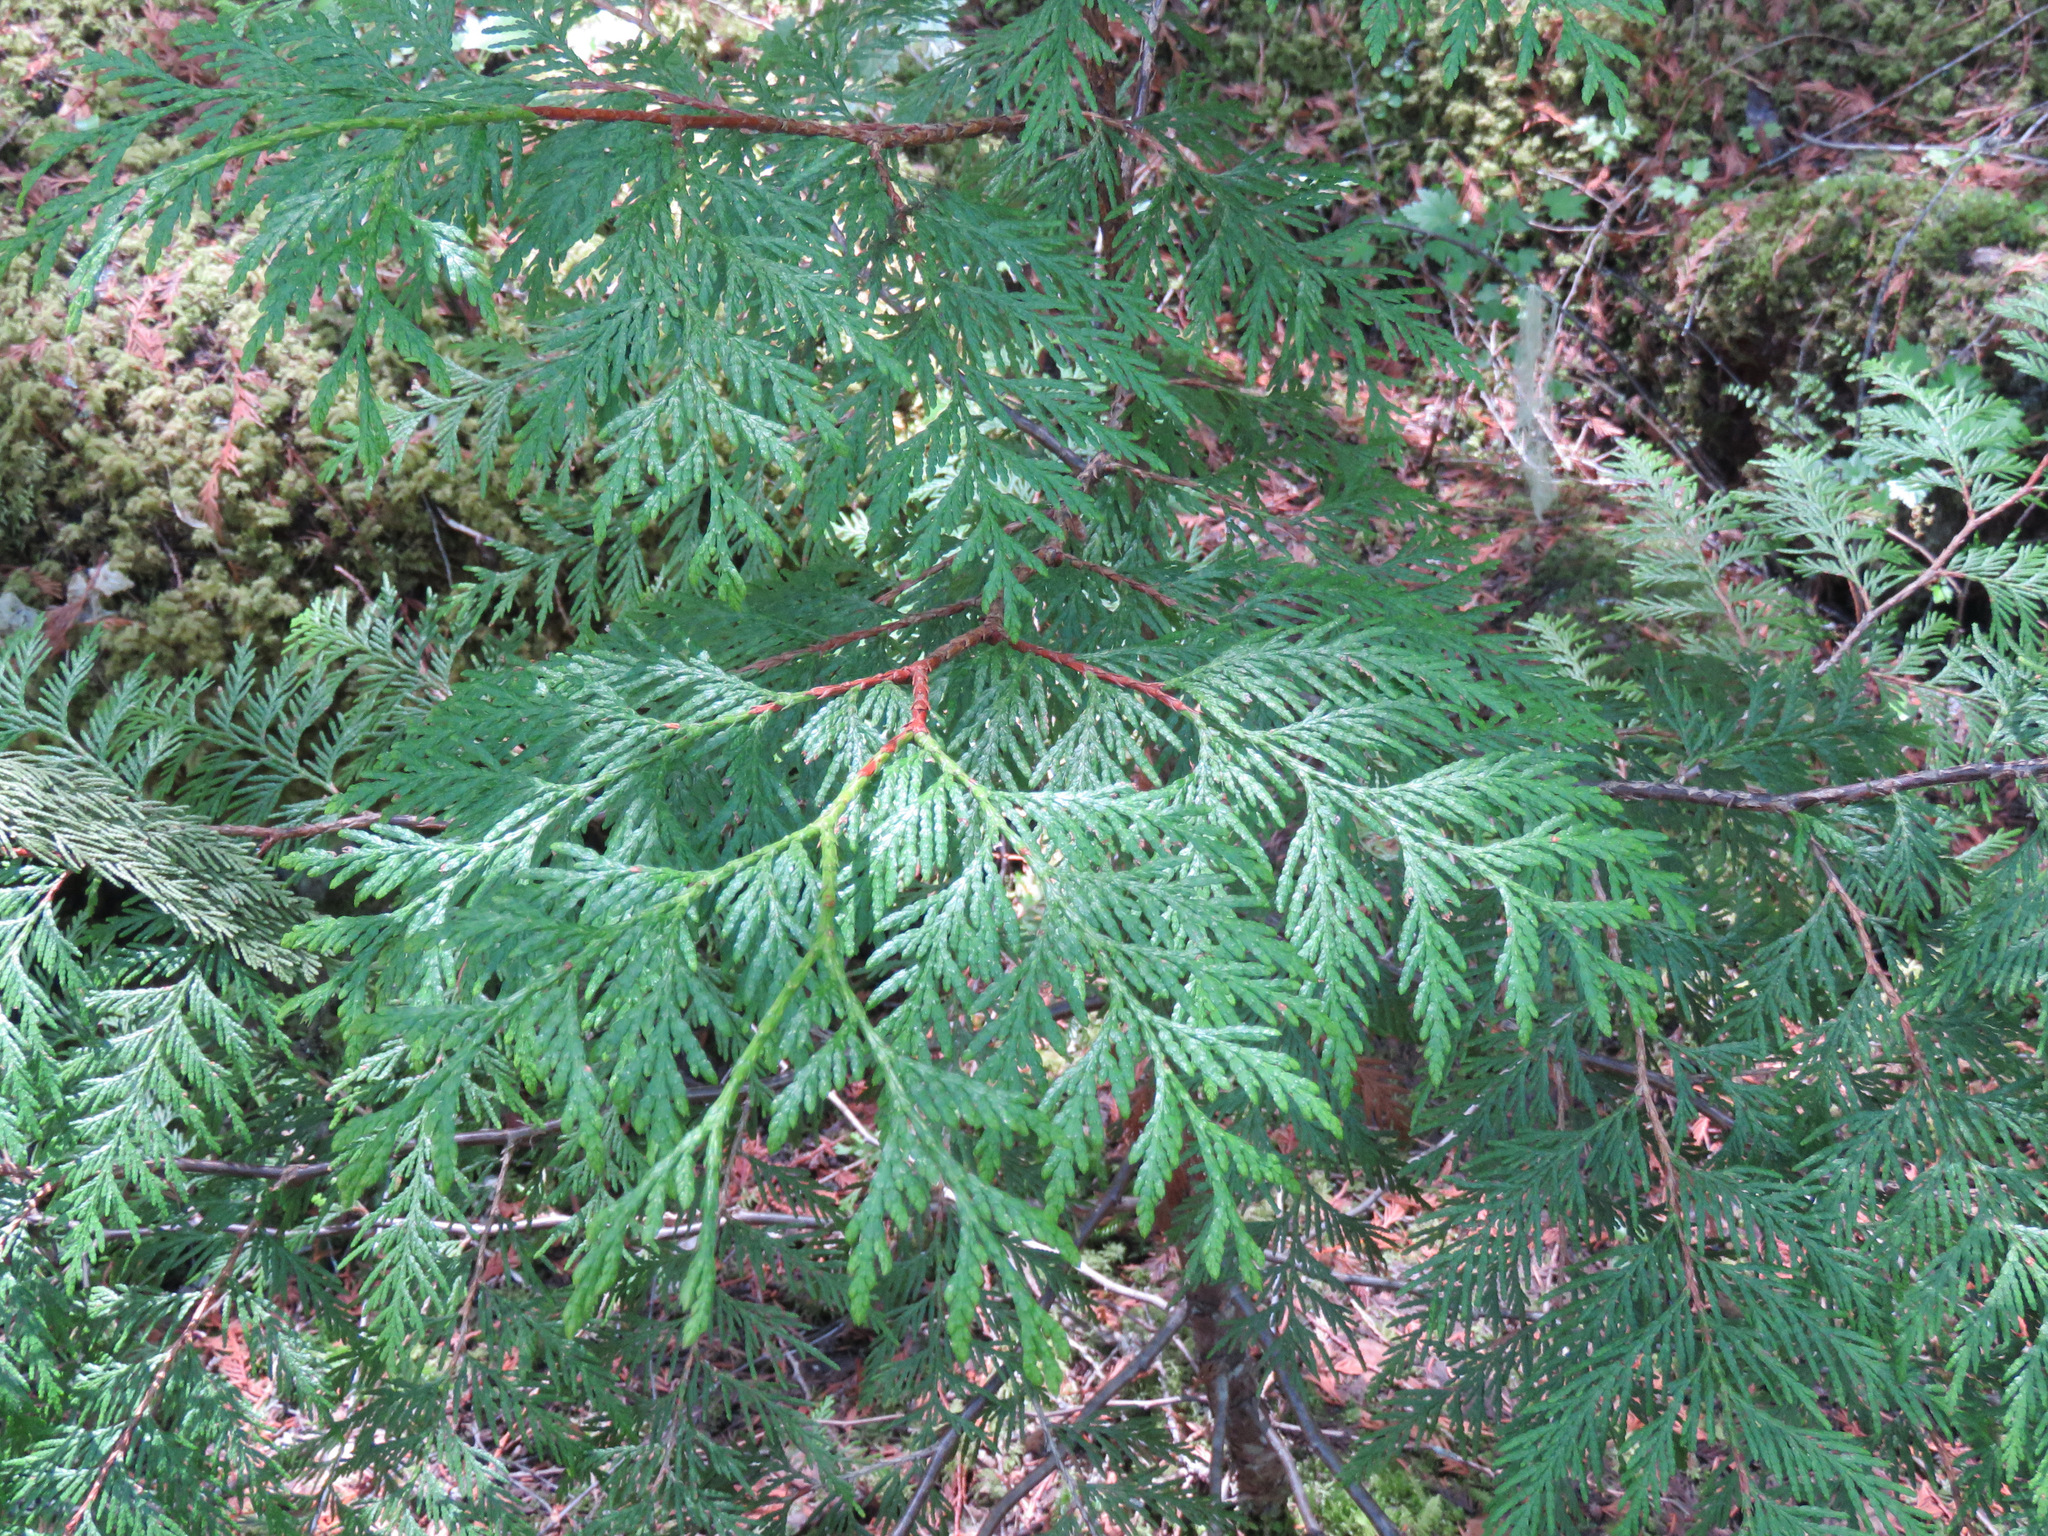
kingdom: Plantae
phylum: Tracheophyta
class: Pinopsida
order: Pinales
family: Cupressaceae
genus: Thuja
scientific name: Thuja plicata
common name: Western red-cedar
